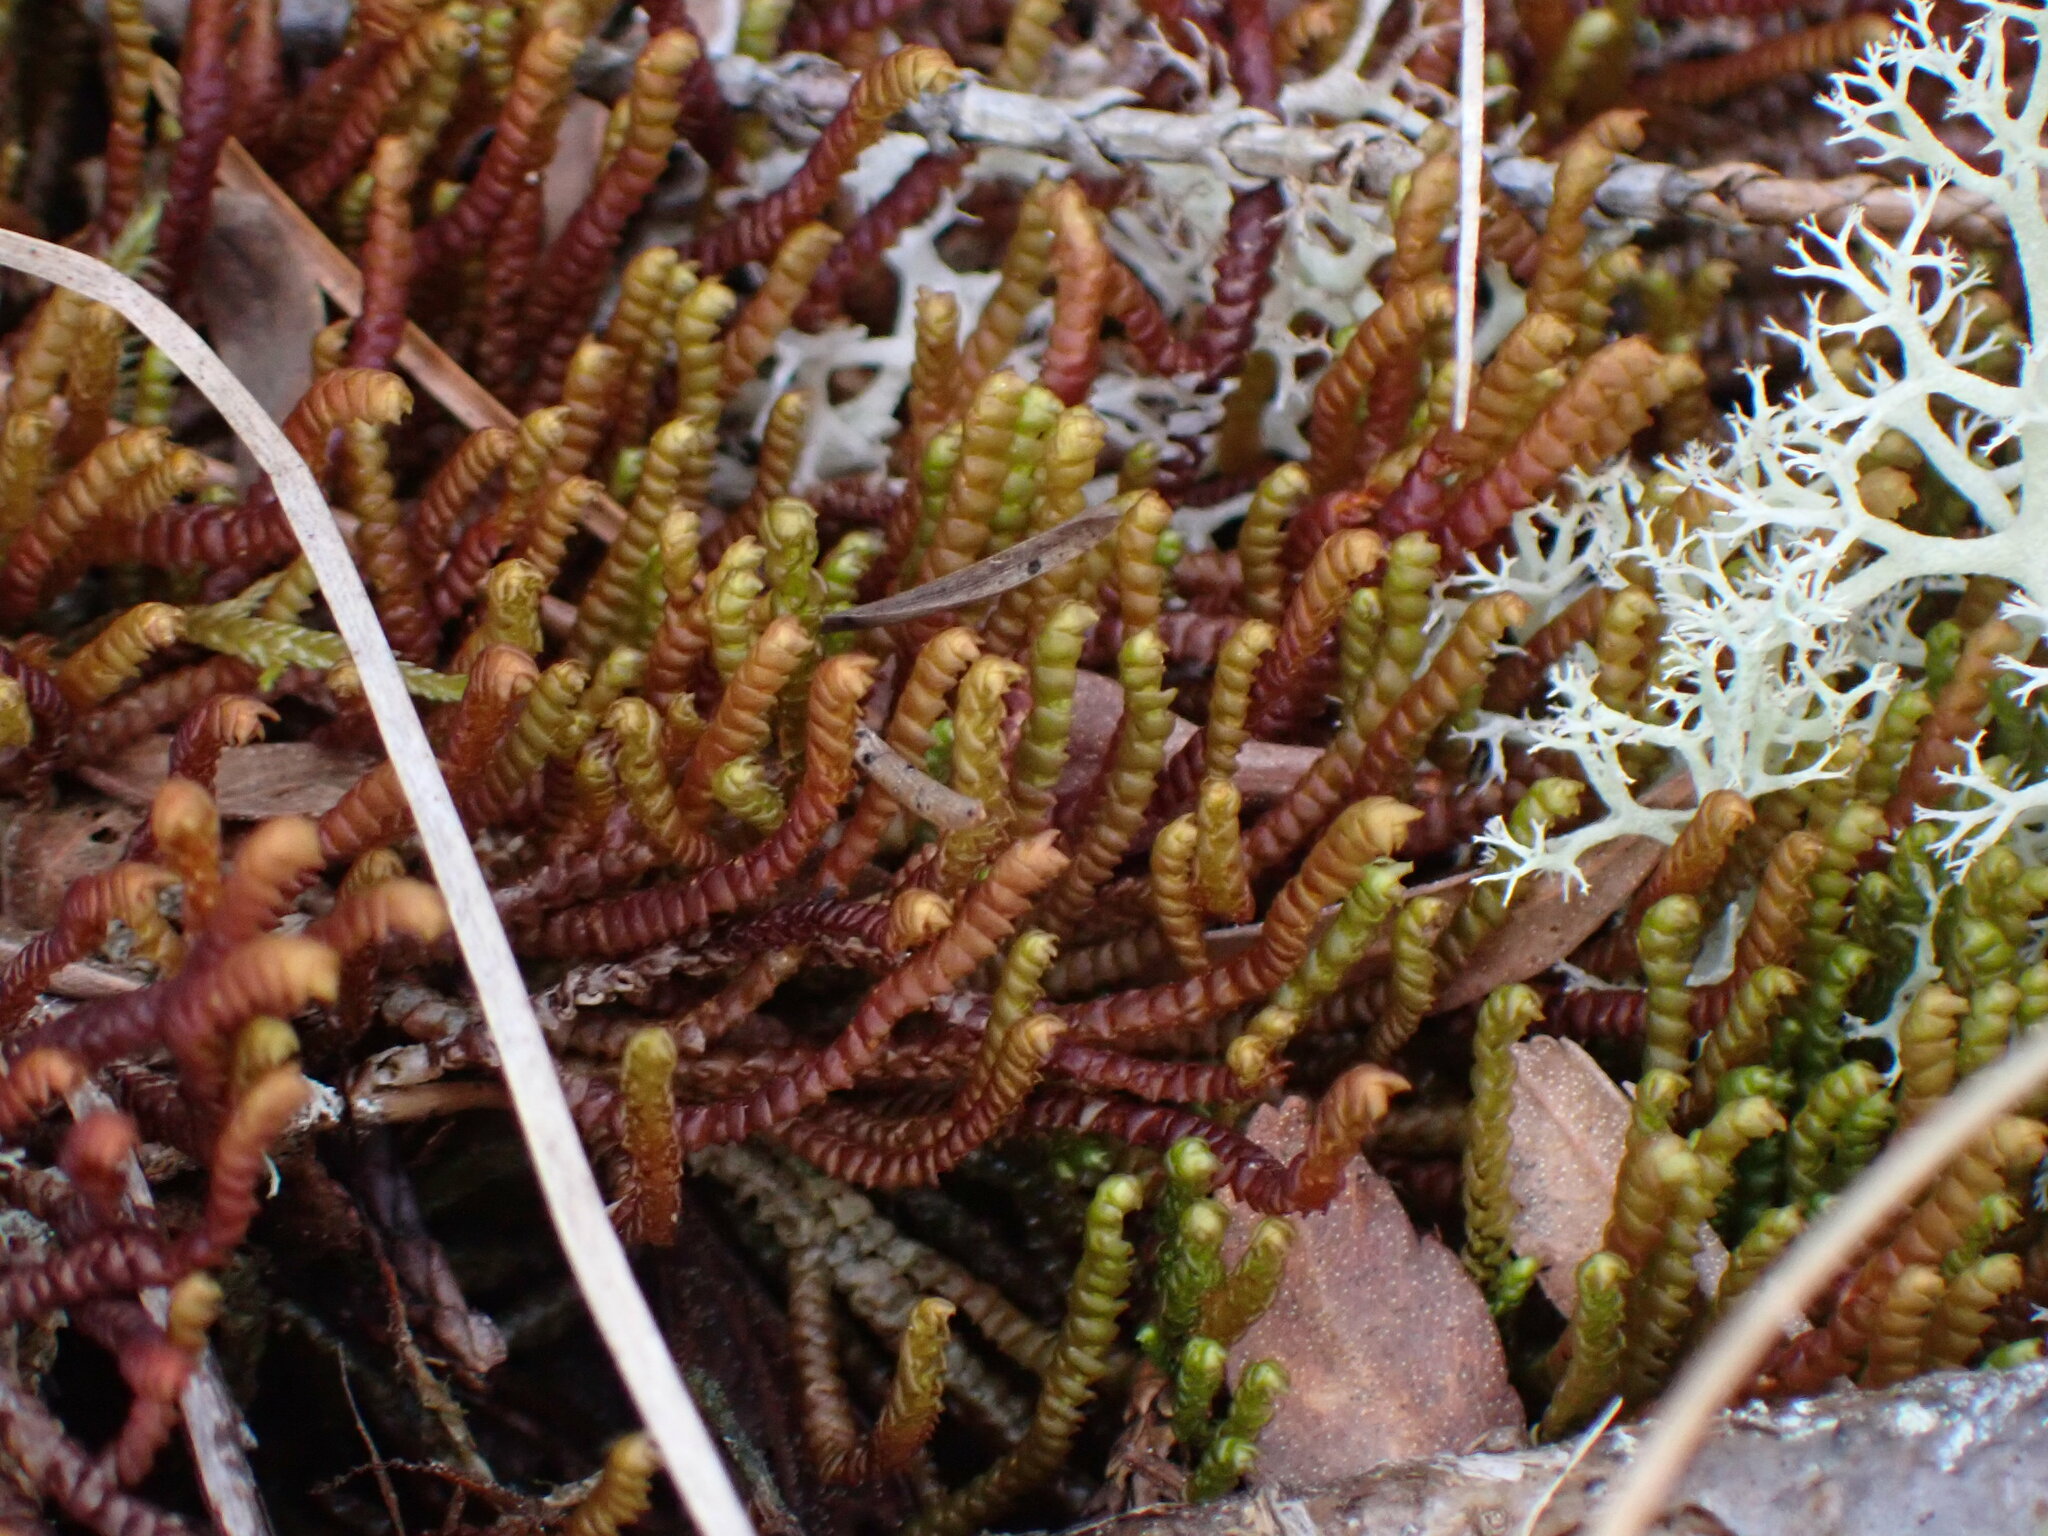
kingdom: Plantae
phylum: Marchantiophyta
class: Jungermanniopsida
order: Pleuroziales
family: Pleuroziaceae
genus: Pleurozia
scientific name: Pleurozia purpurea
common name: Purple spoonwort
